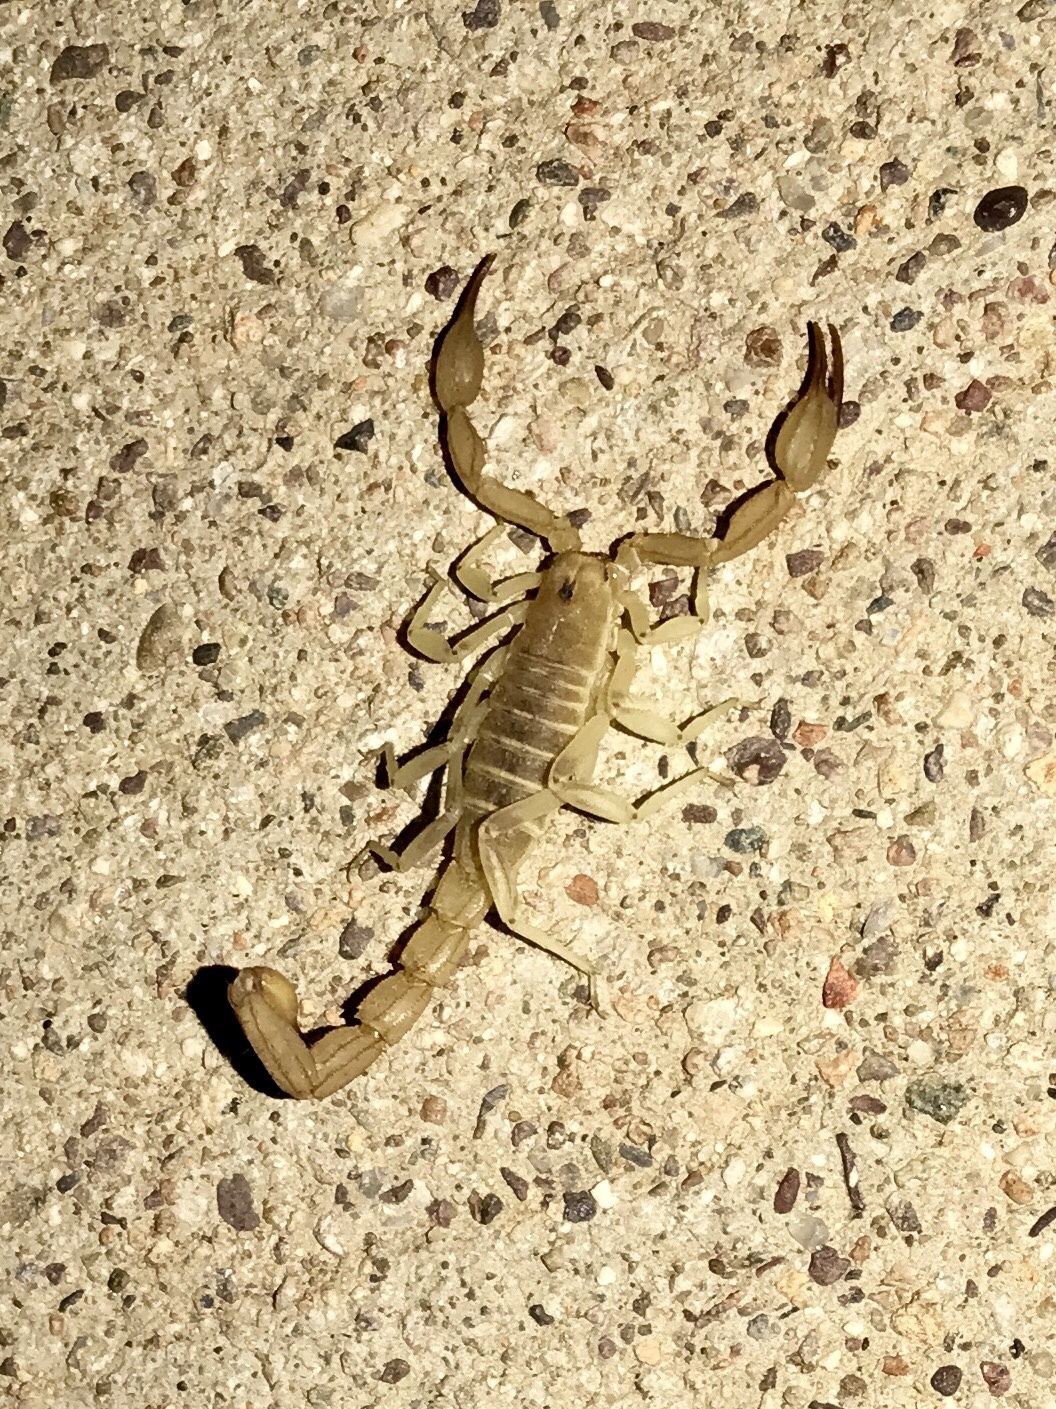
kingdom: Animalia
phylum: Arthropoda
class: Arachnida
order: Scorpiones
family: Vaejovidae
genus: Chihuahuanus
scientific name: Chihuahuanus russelli
